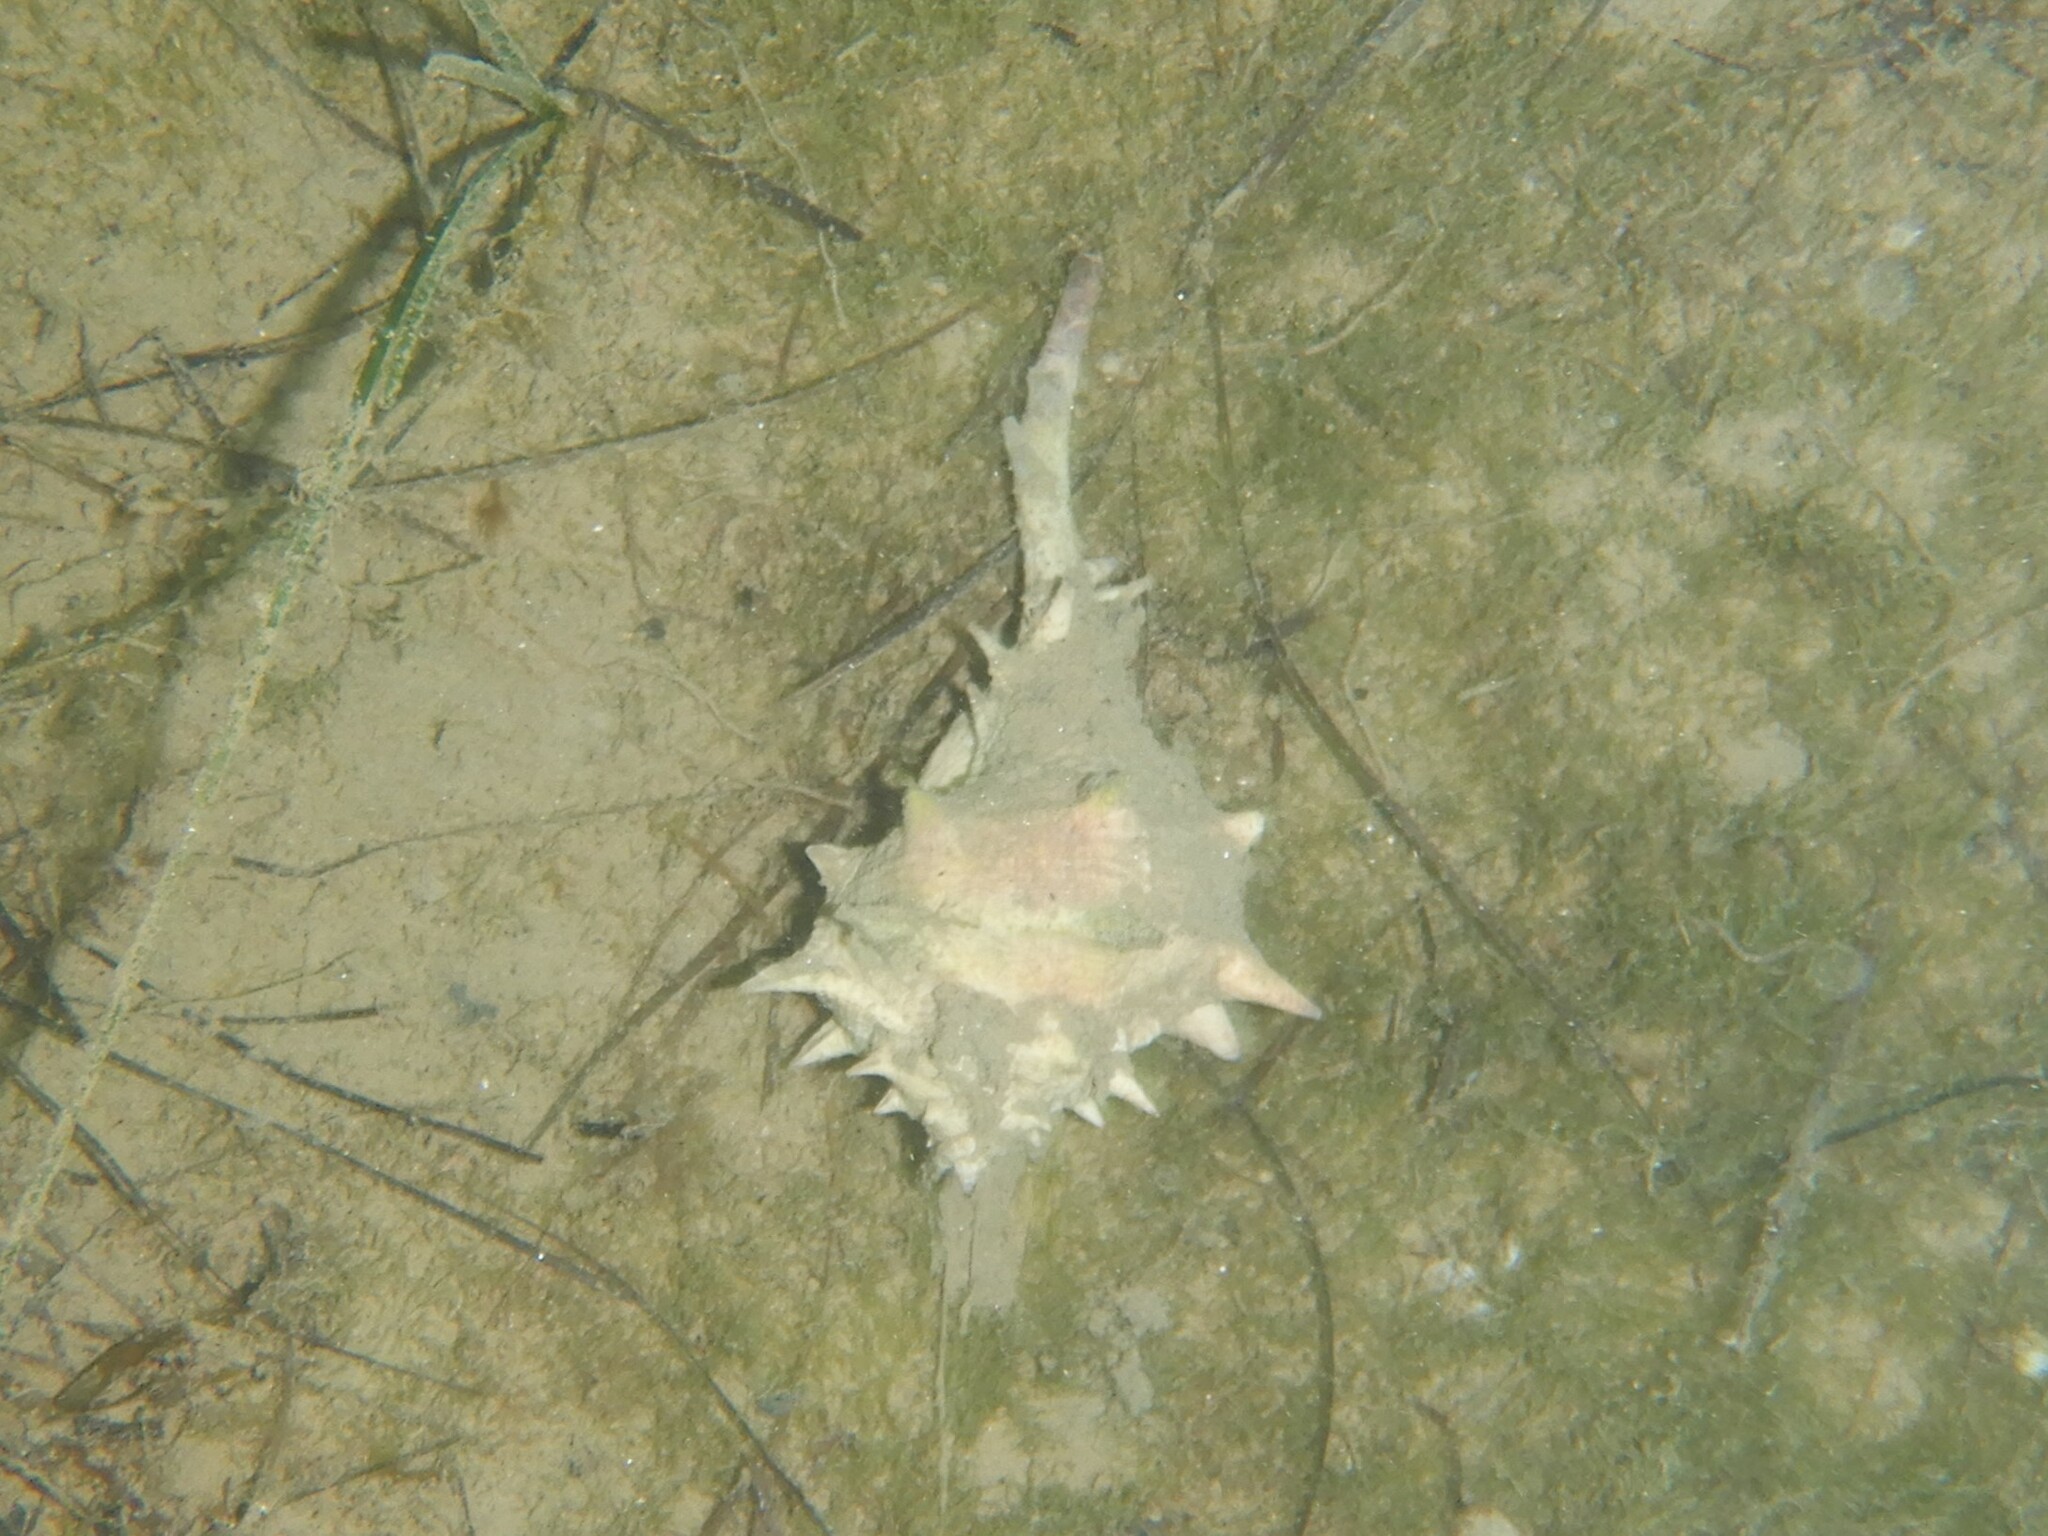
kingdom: Animalia
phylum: Mollusca
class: Gastropoda
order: Neogastropoda
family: Muricidae
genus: Bolinus
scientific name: Bolinus brandaris
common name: Dye murex
